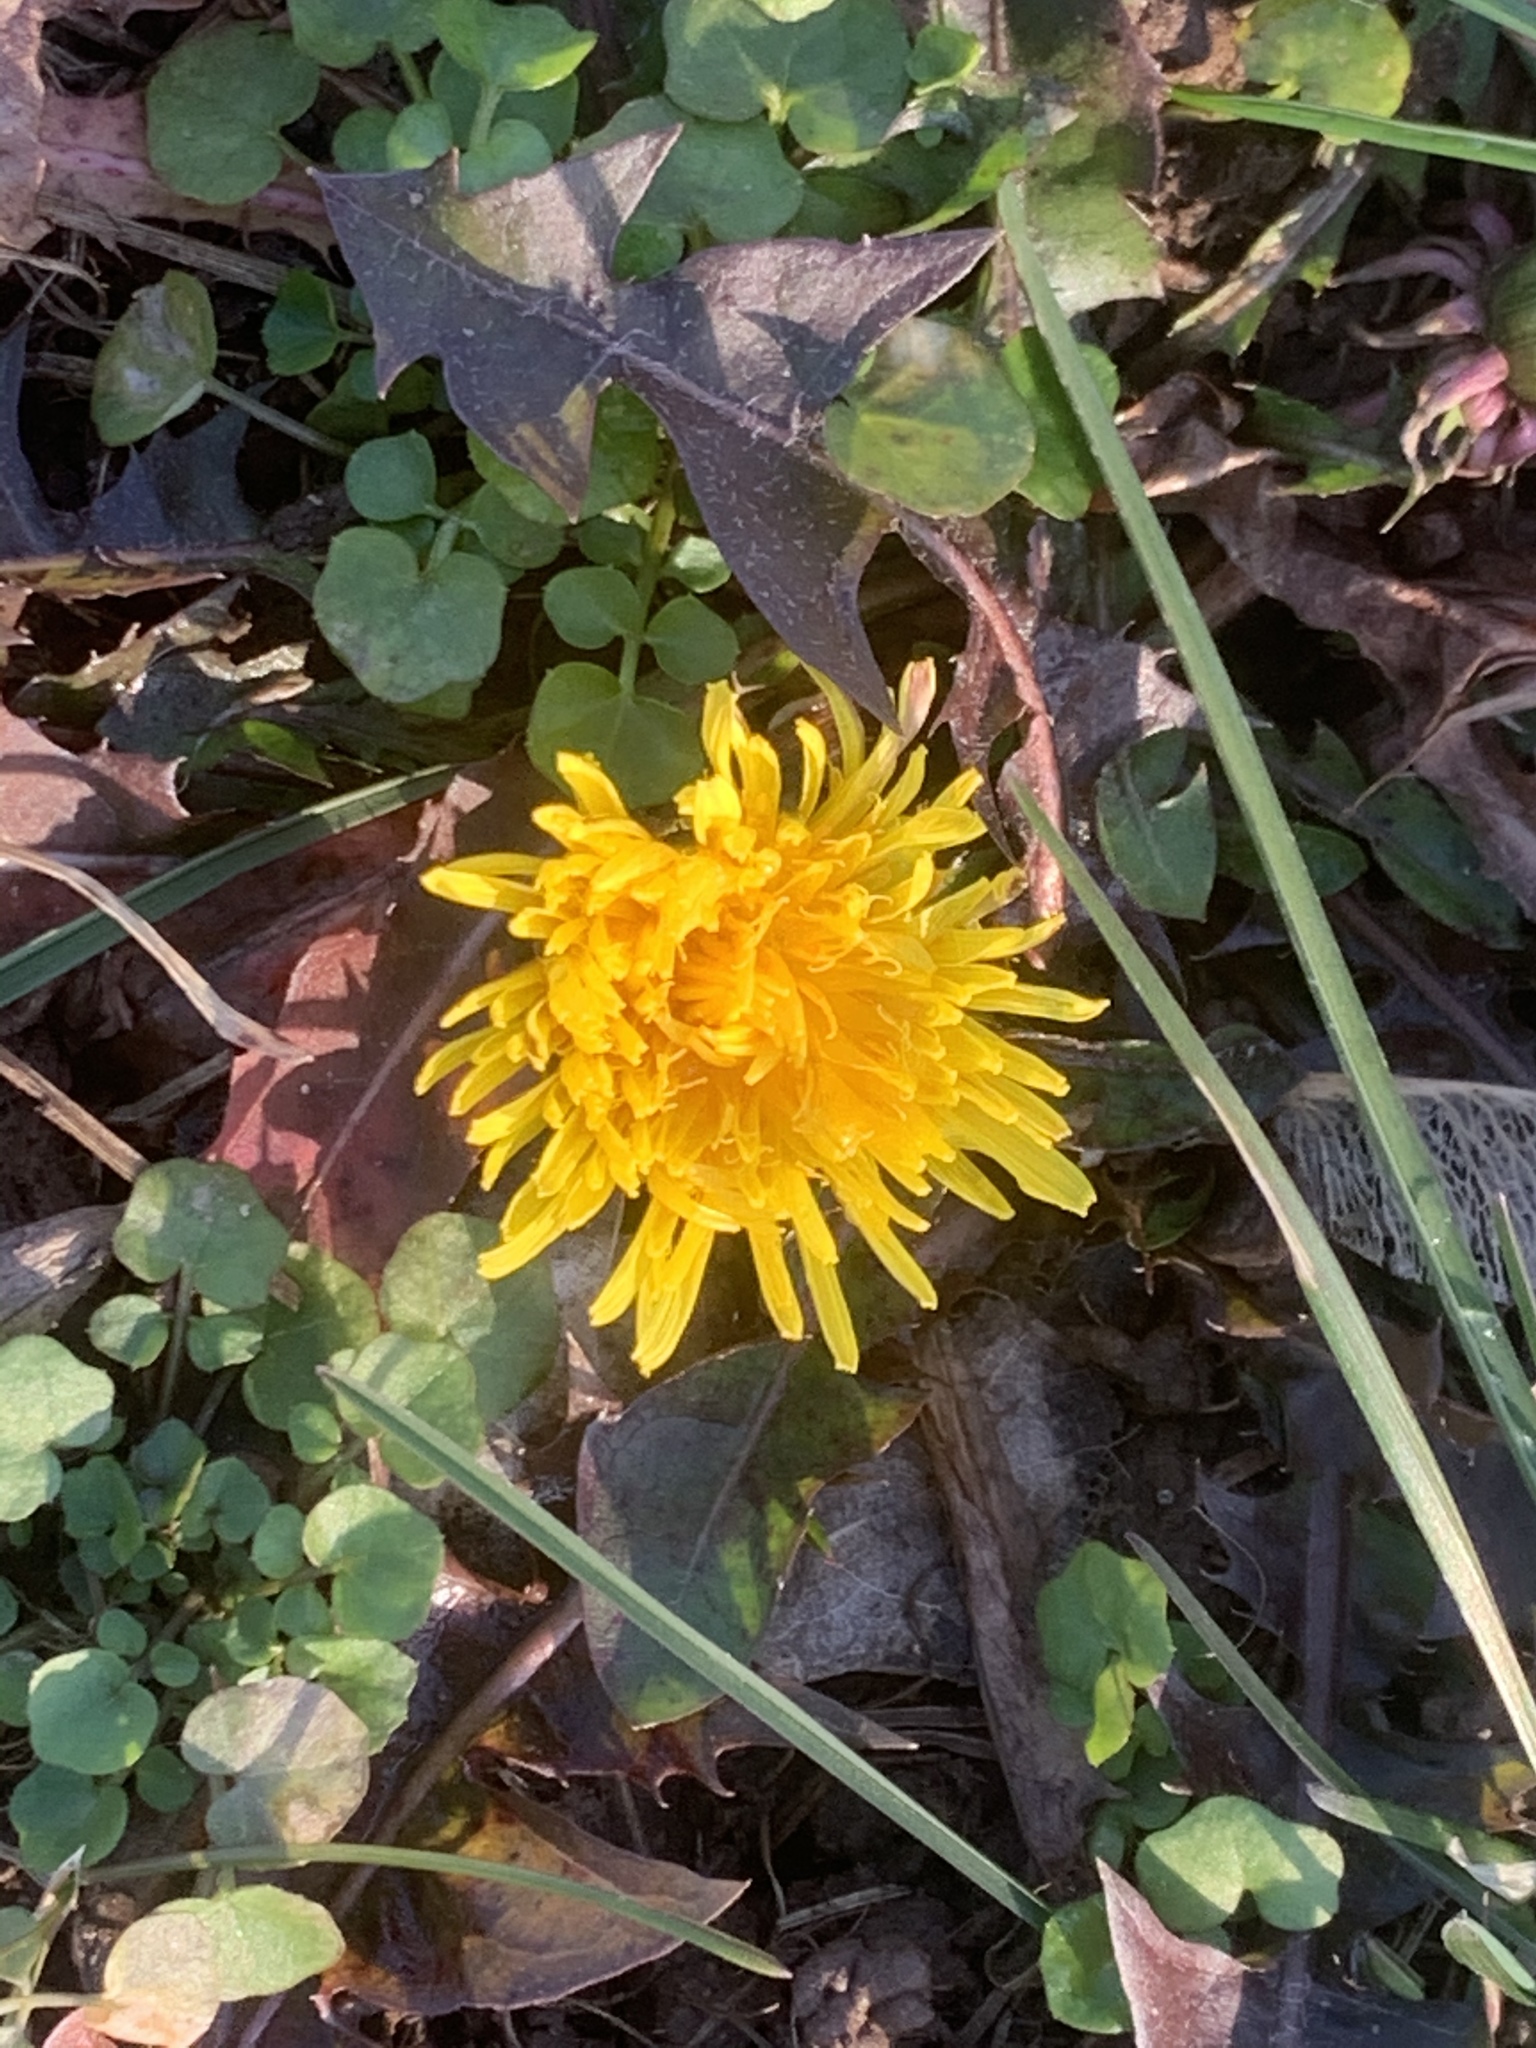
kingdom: Plantae
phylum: Tracheophyta
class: Magnoliopsida
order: Asterales
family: Asteraceae
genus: Taraxacum
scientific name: Taraxacum
